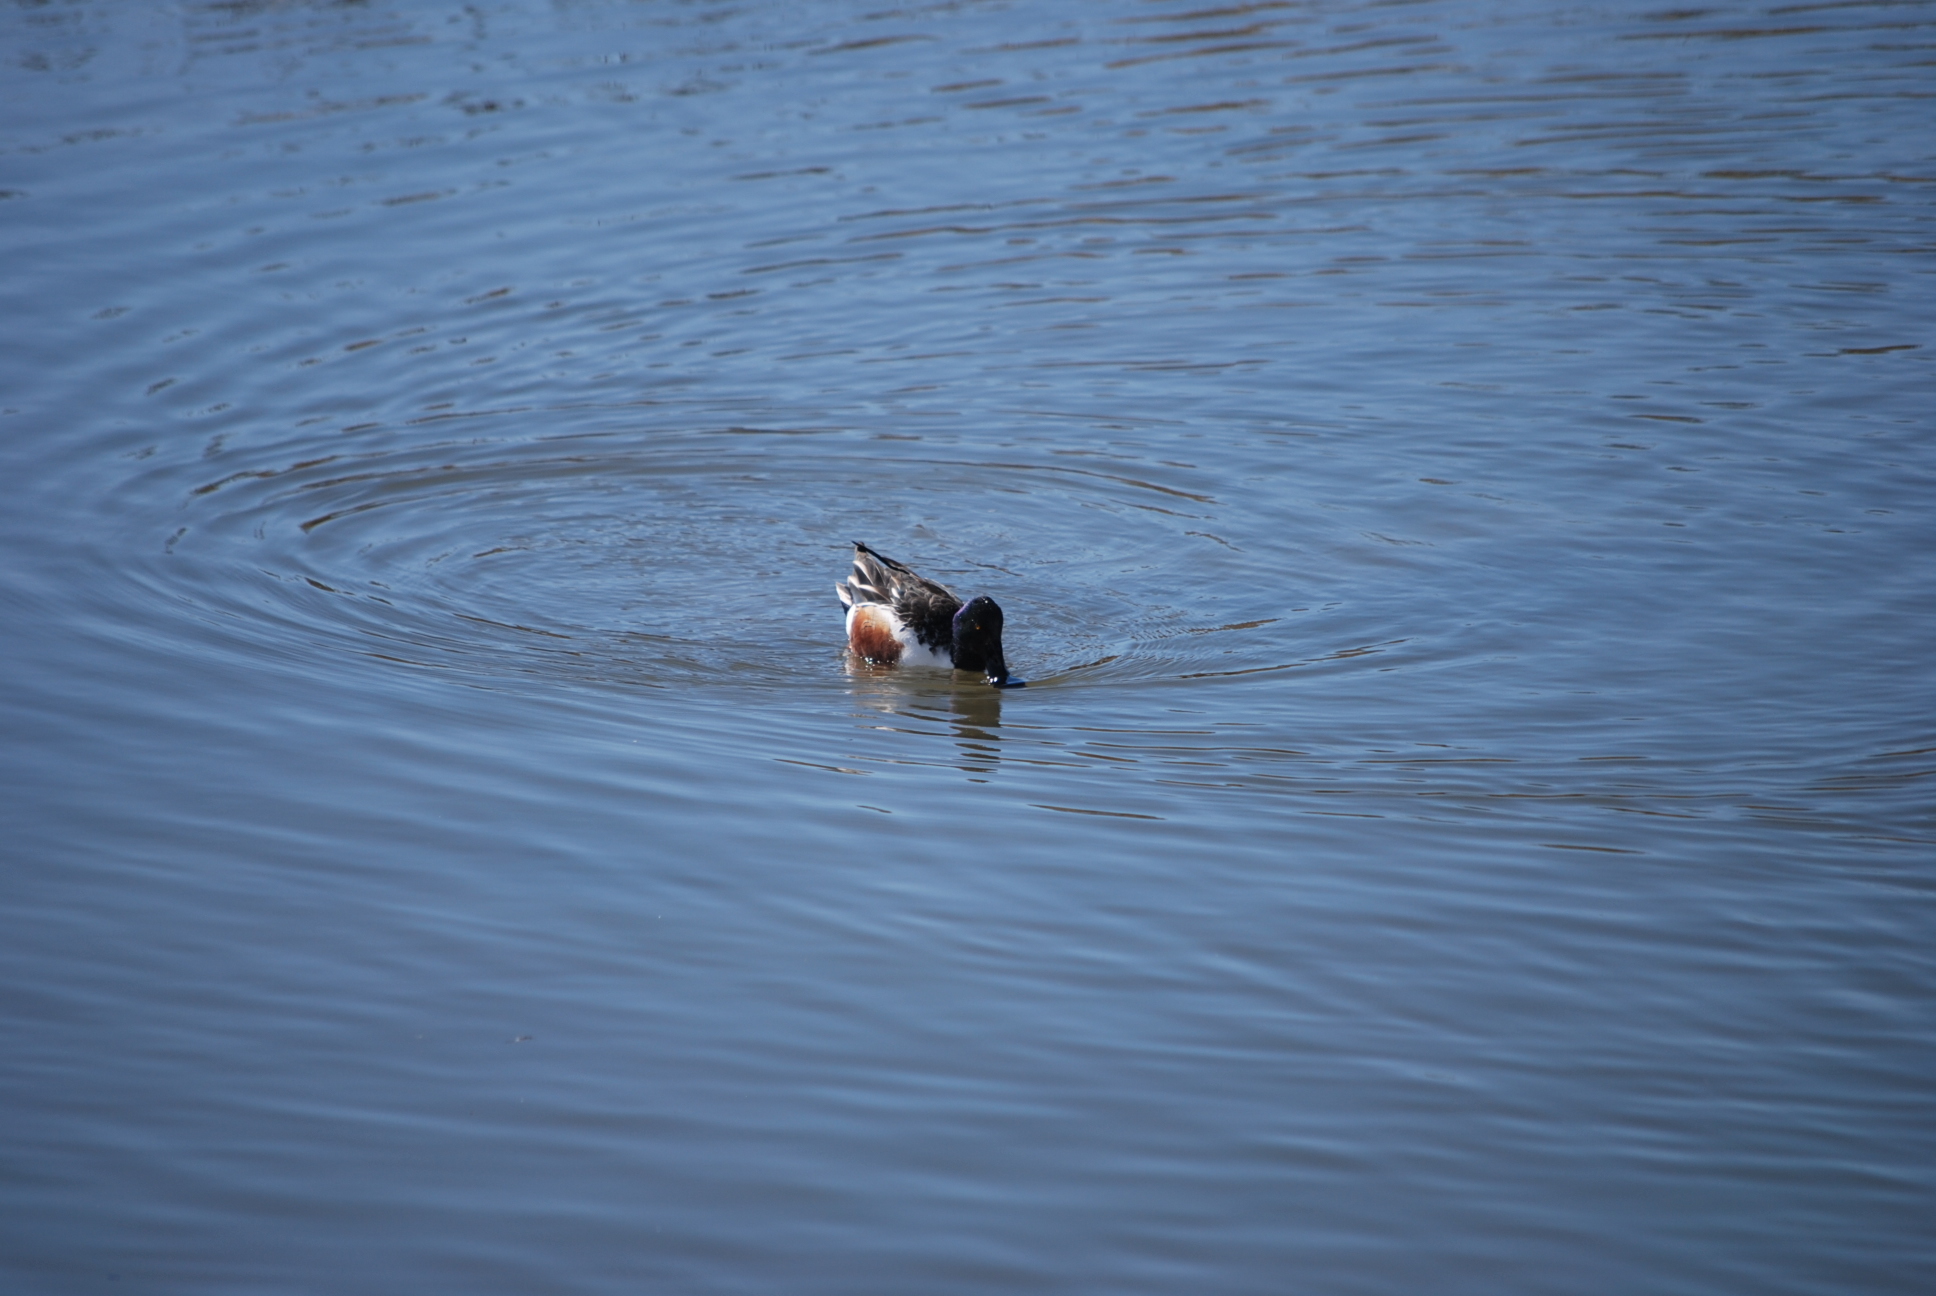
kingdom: Animalia
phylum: Chordata
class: Aves
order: Anseriformes
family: Anatidae
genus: Spatula
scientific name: Spatula clypeata
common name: Northern shoveler
